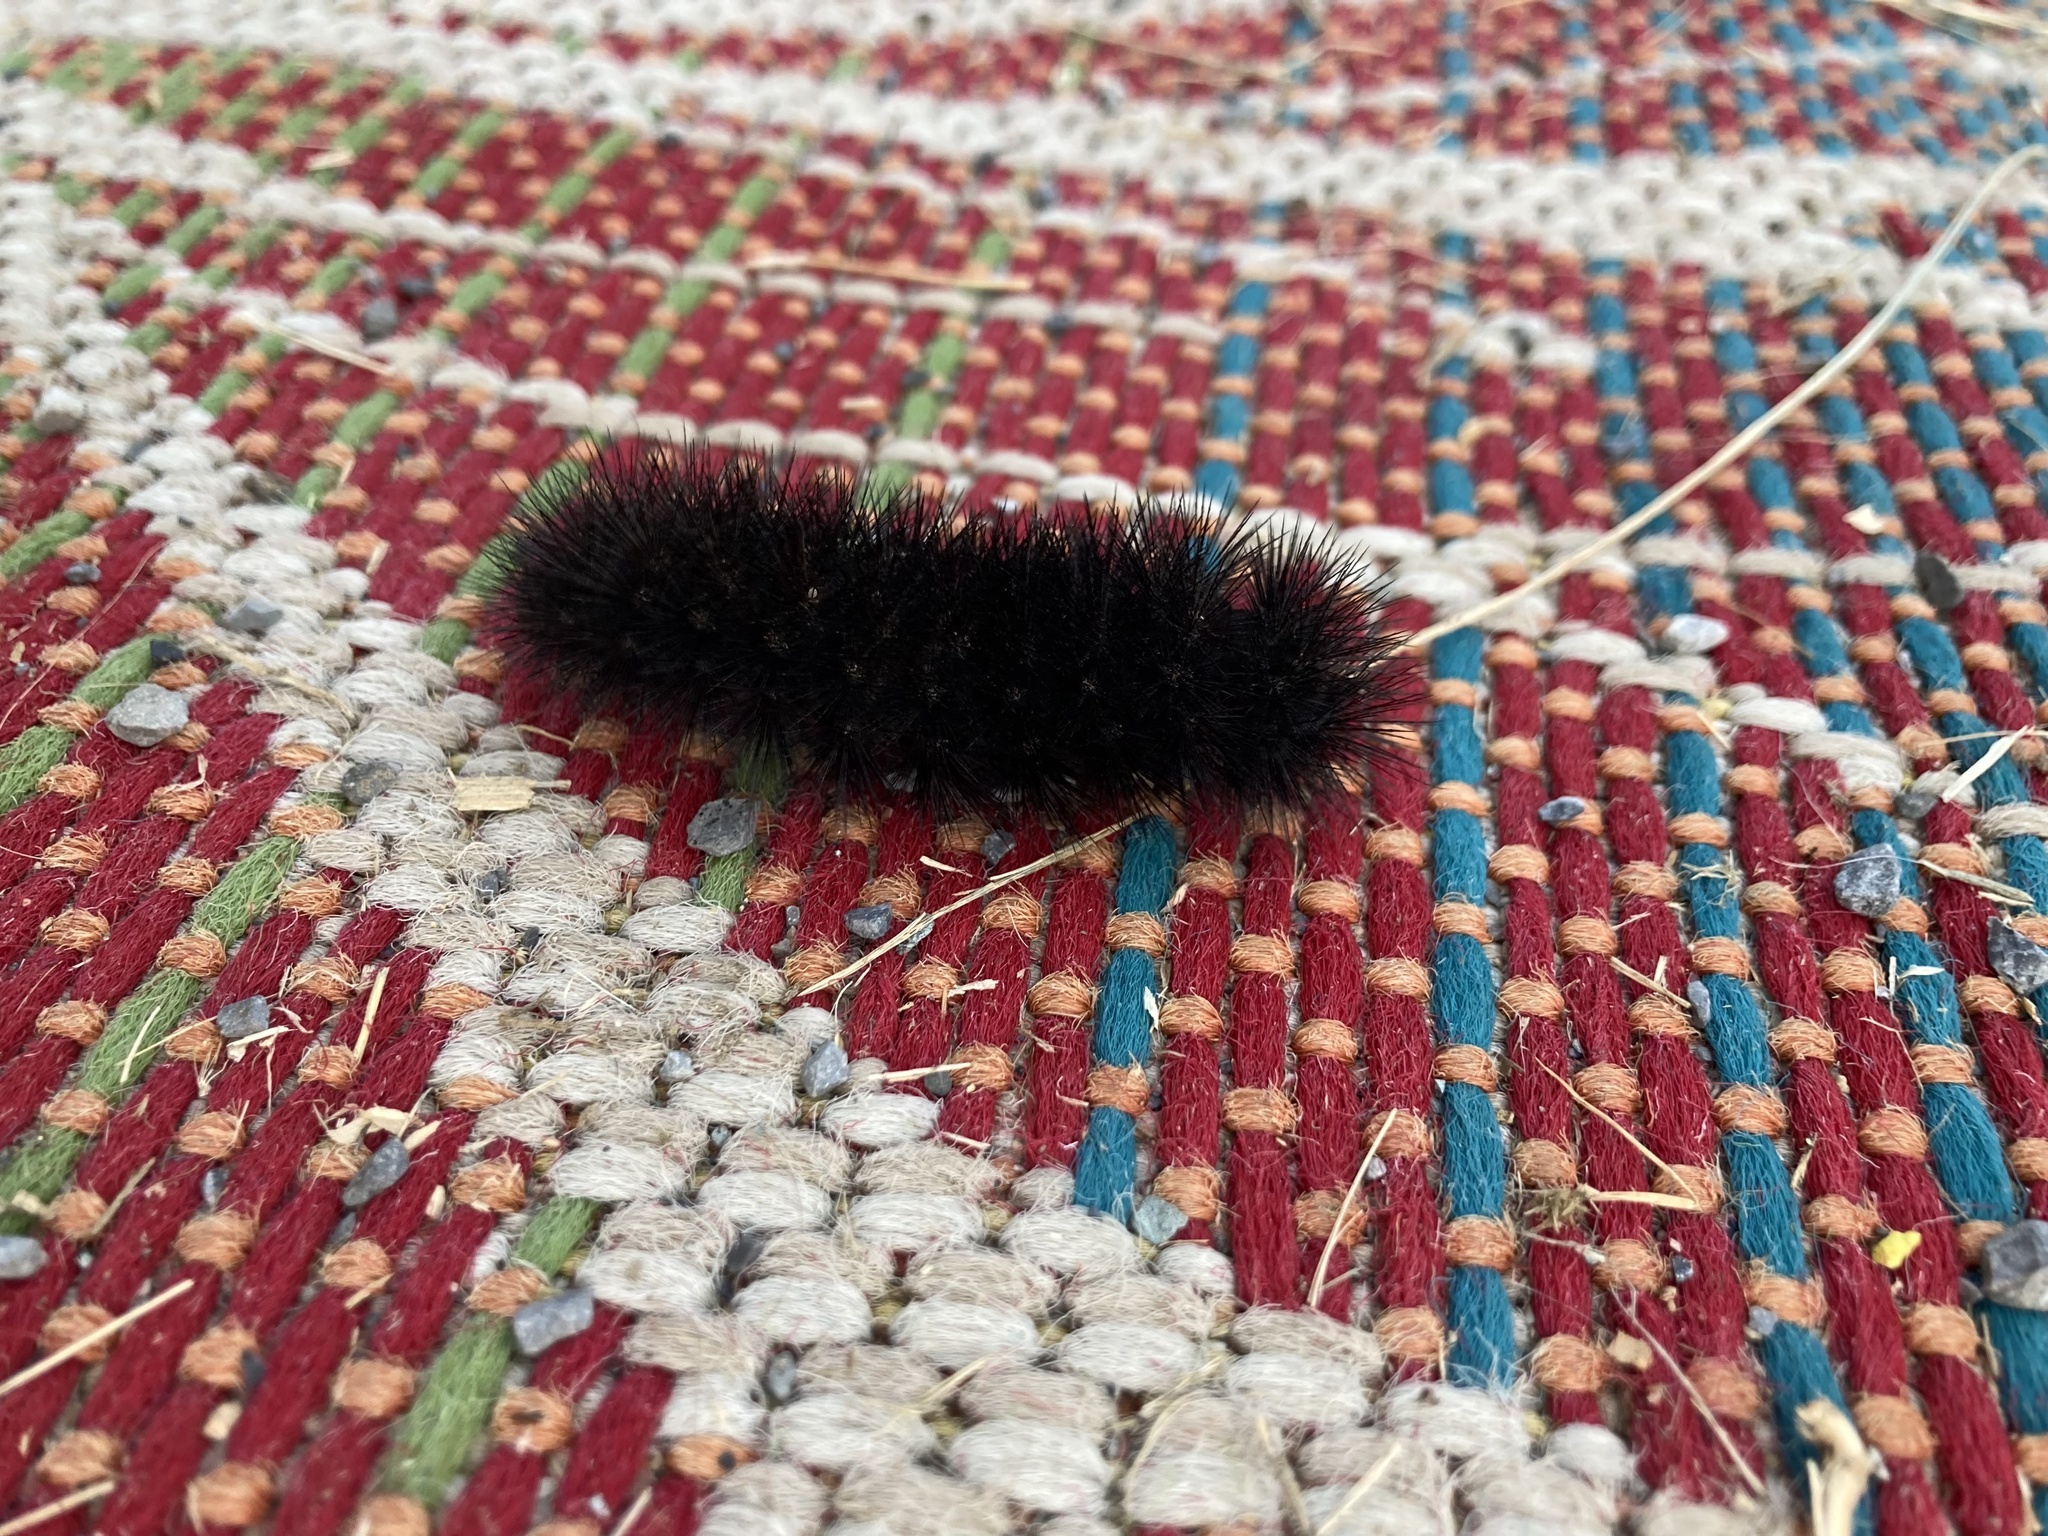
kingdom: Animalia
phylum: Arthropoda
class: Insecta
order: Lepidoptera
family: Erebidae
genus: Hypercompe
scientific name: Hypercompe scribonia
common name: Giant leopard moth
